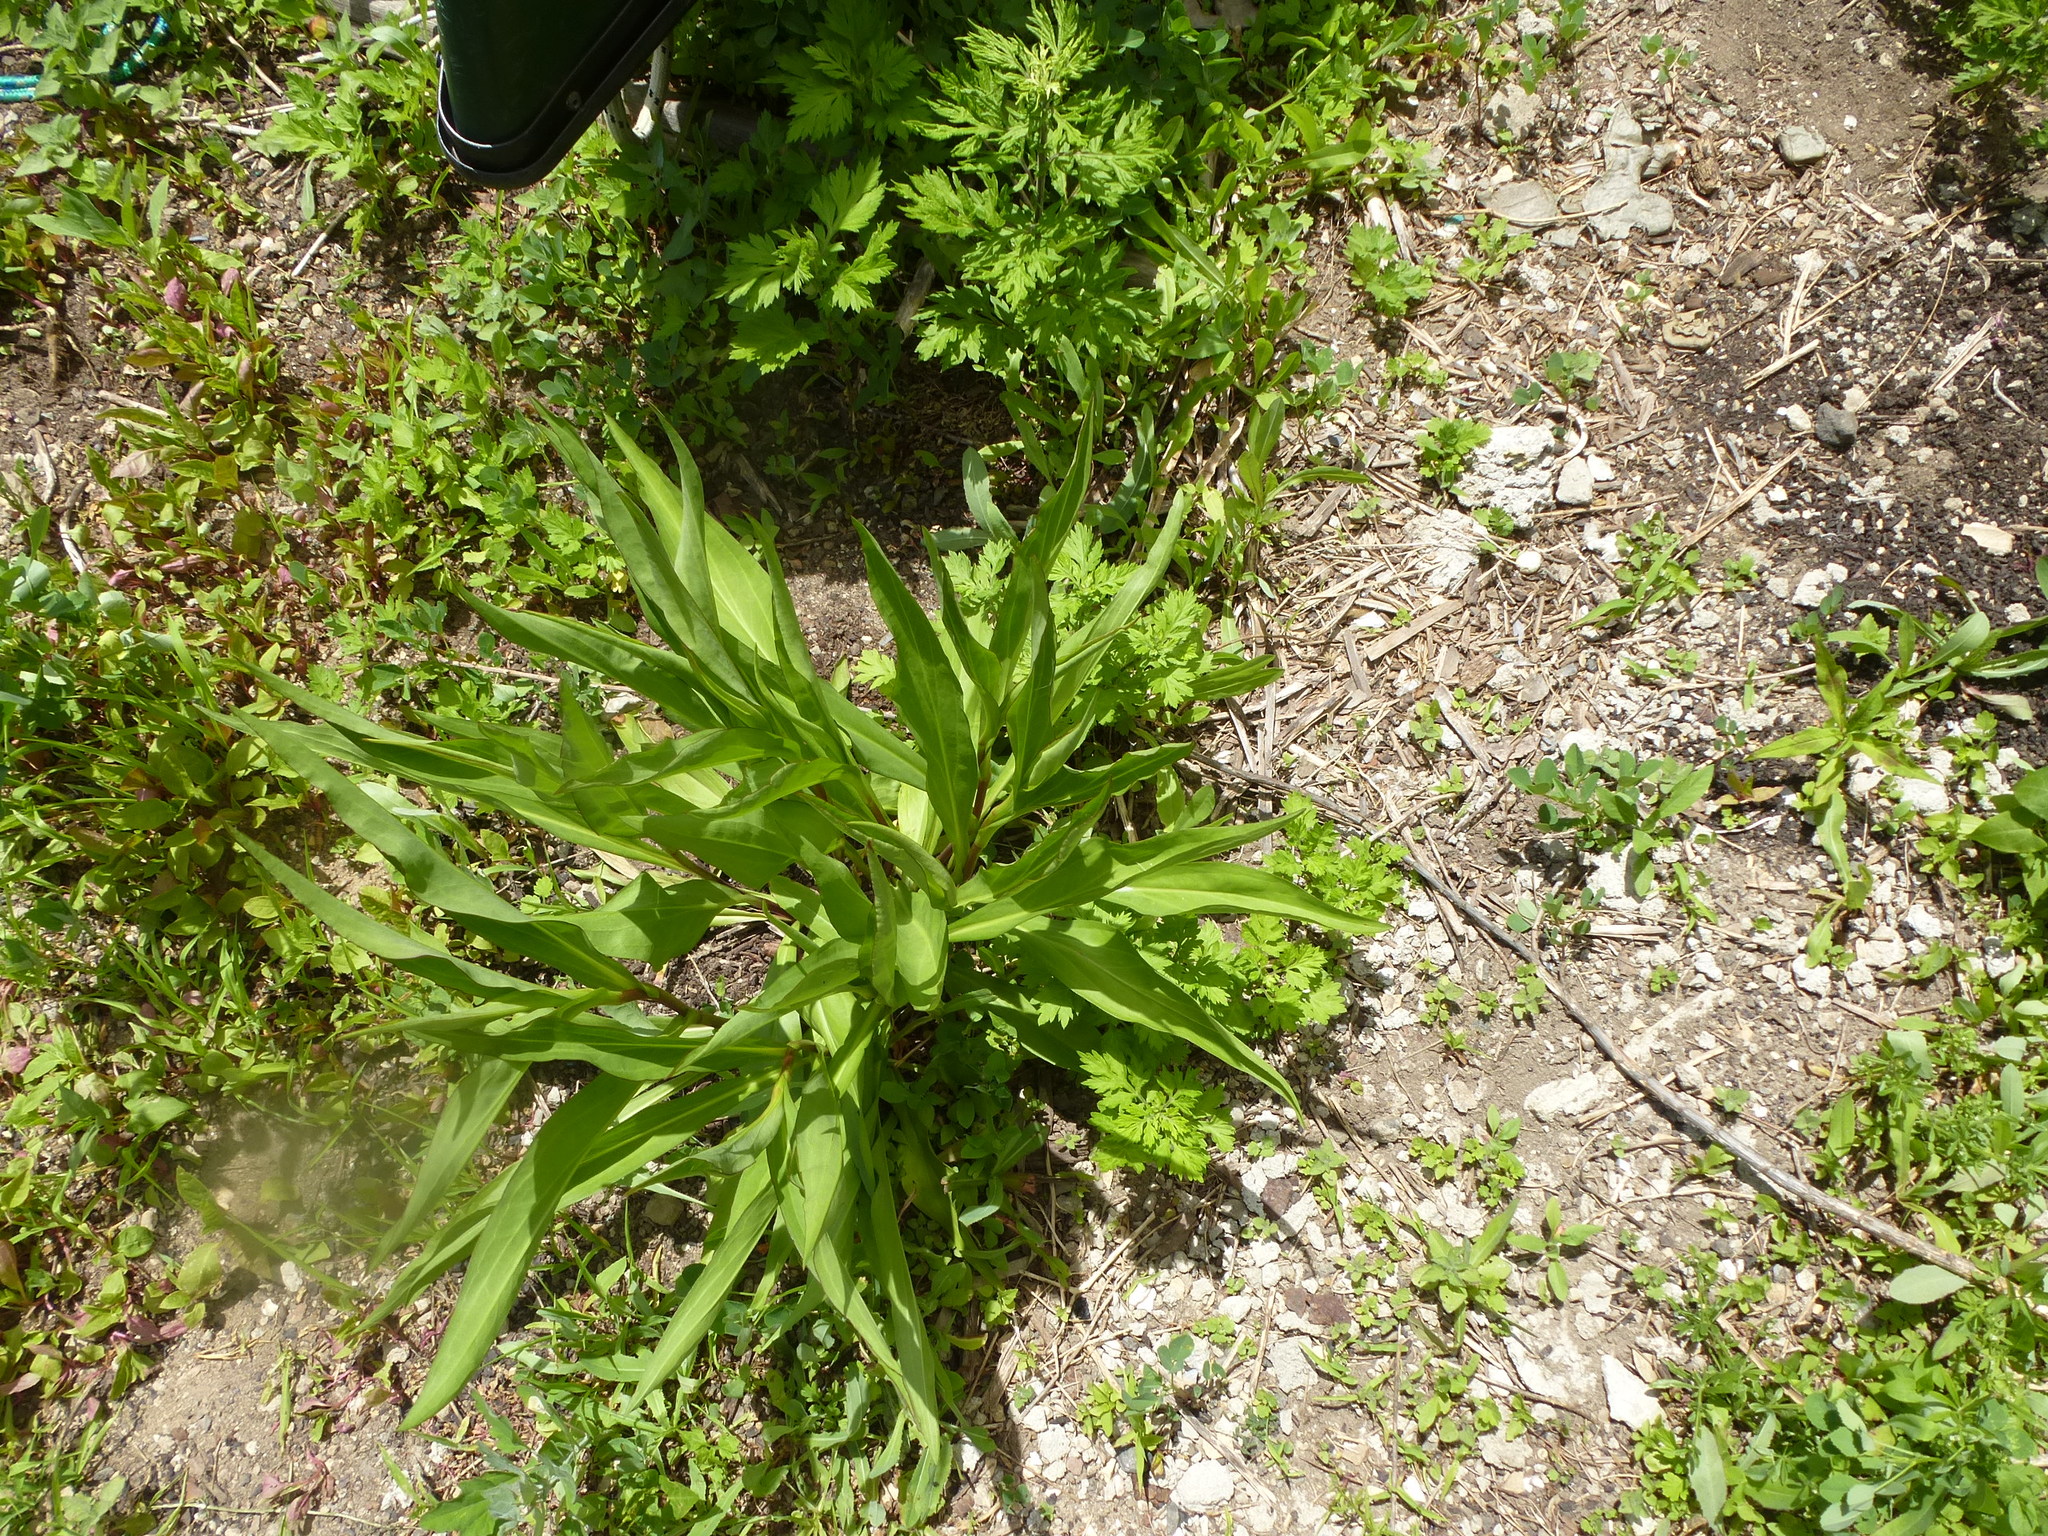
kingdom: Plantae
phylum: Tracheophyta
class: Magnoliopsida
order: Asterales
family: Asteraceae
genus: Solidago
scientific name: Solidago sempervirens
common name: Salt-marsh goldenrod
